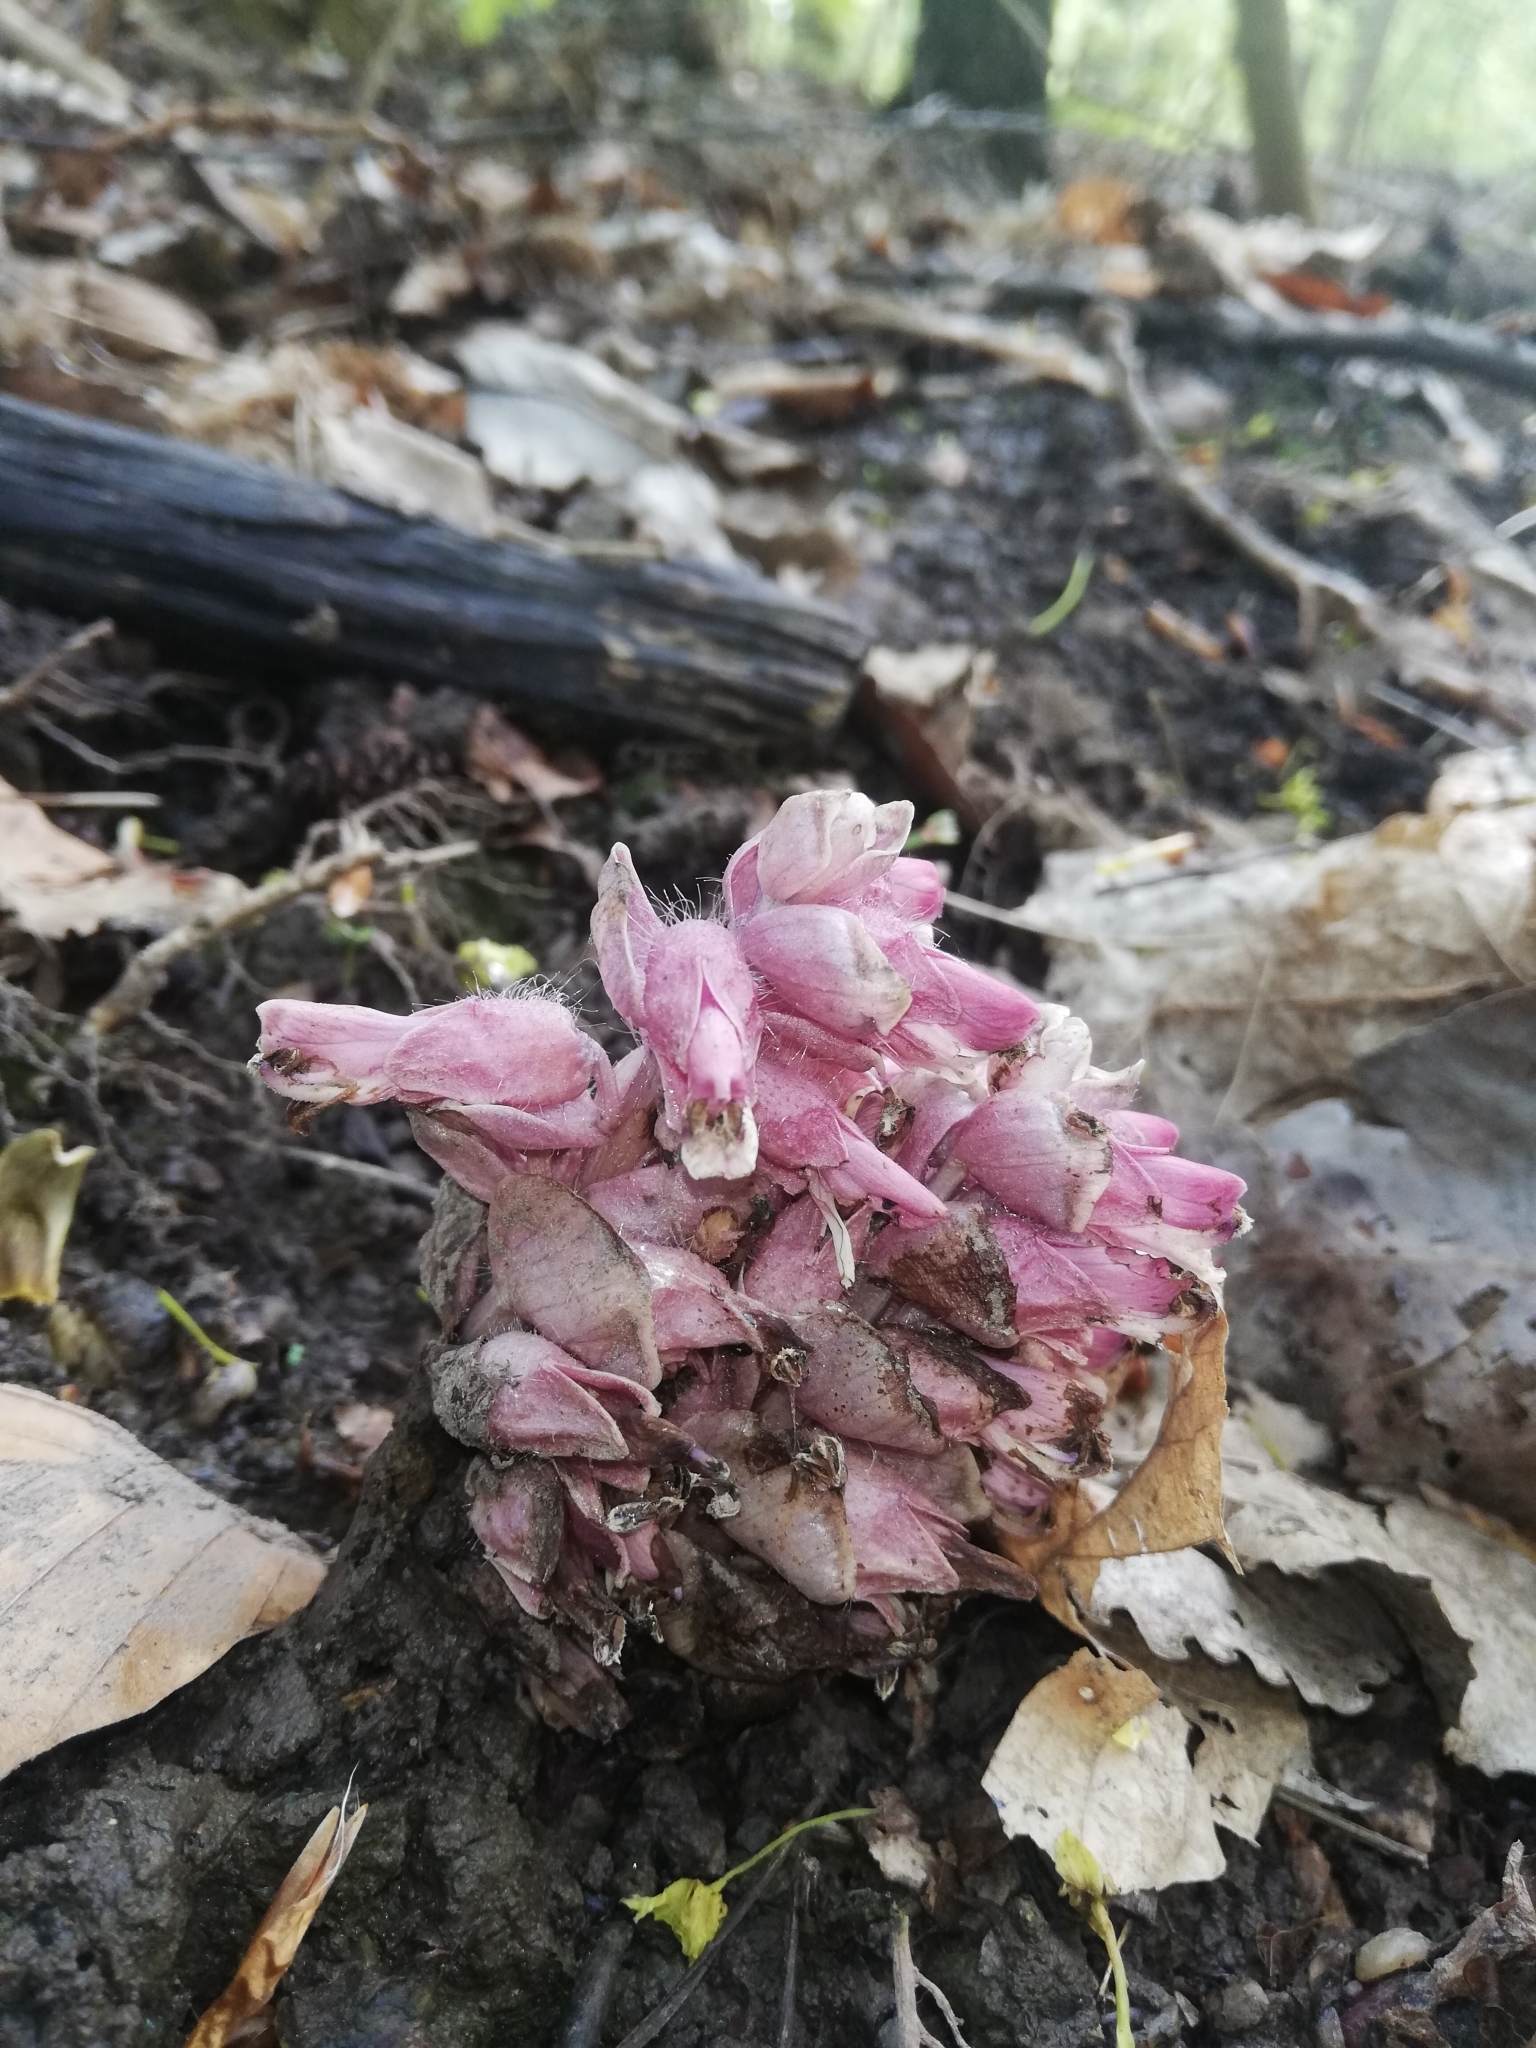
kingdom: Plantae
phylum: Tracheophyta
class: Magnoliopsida
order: Lamiales
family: Orobanchaceae
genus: Lathraea
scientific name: Lathraea squamaria
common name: Toothwort
